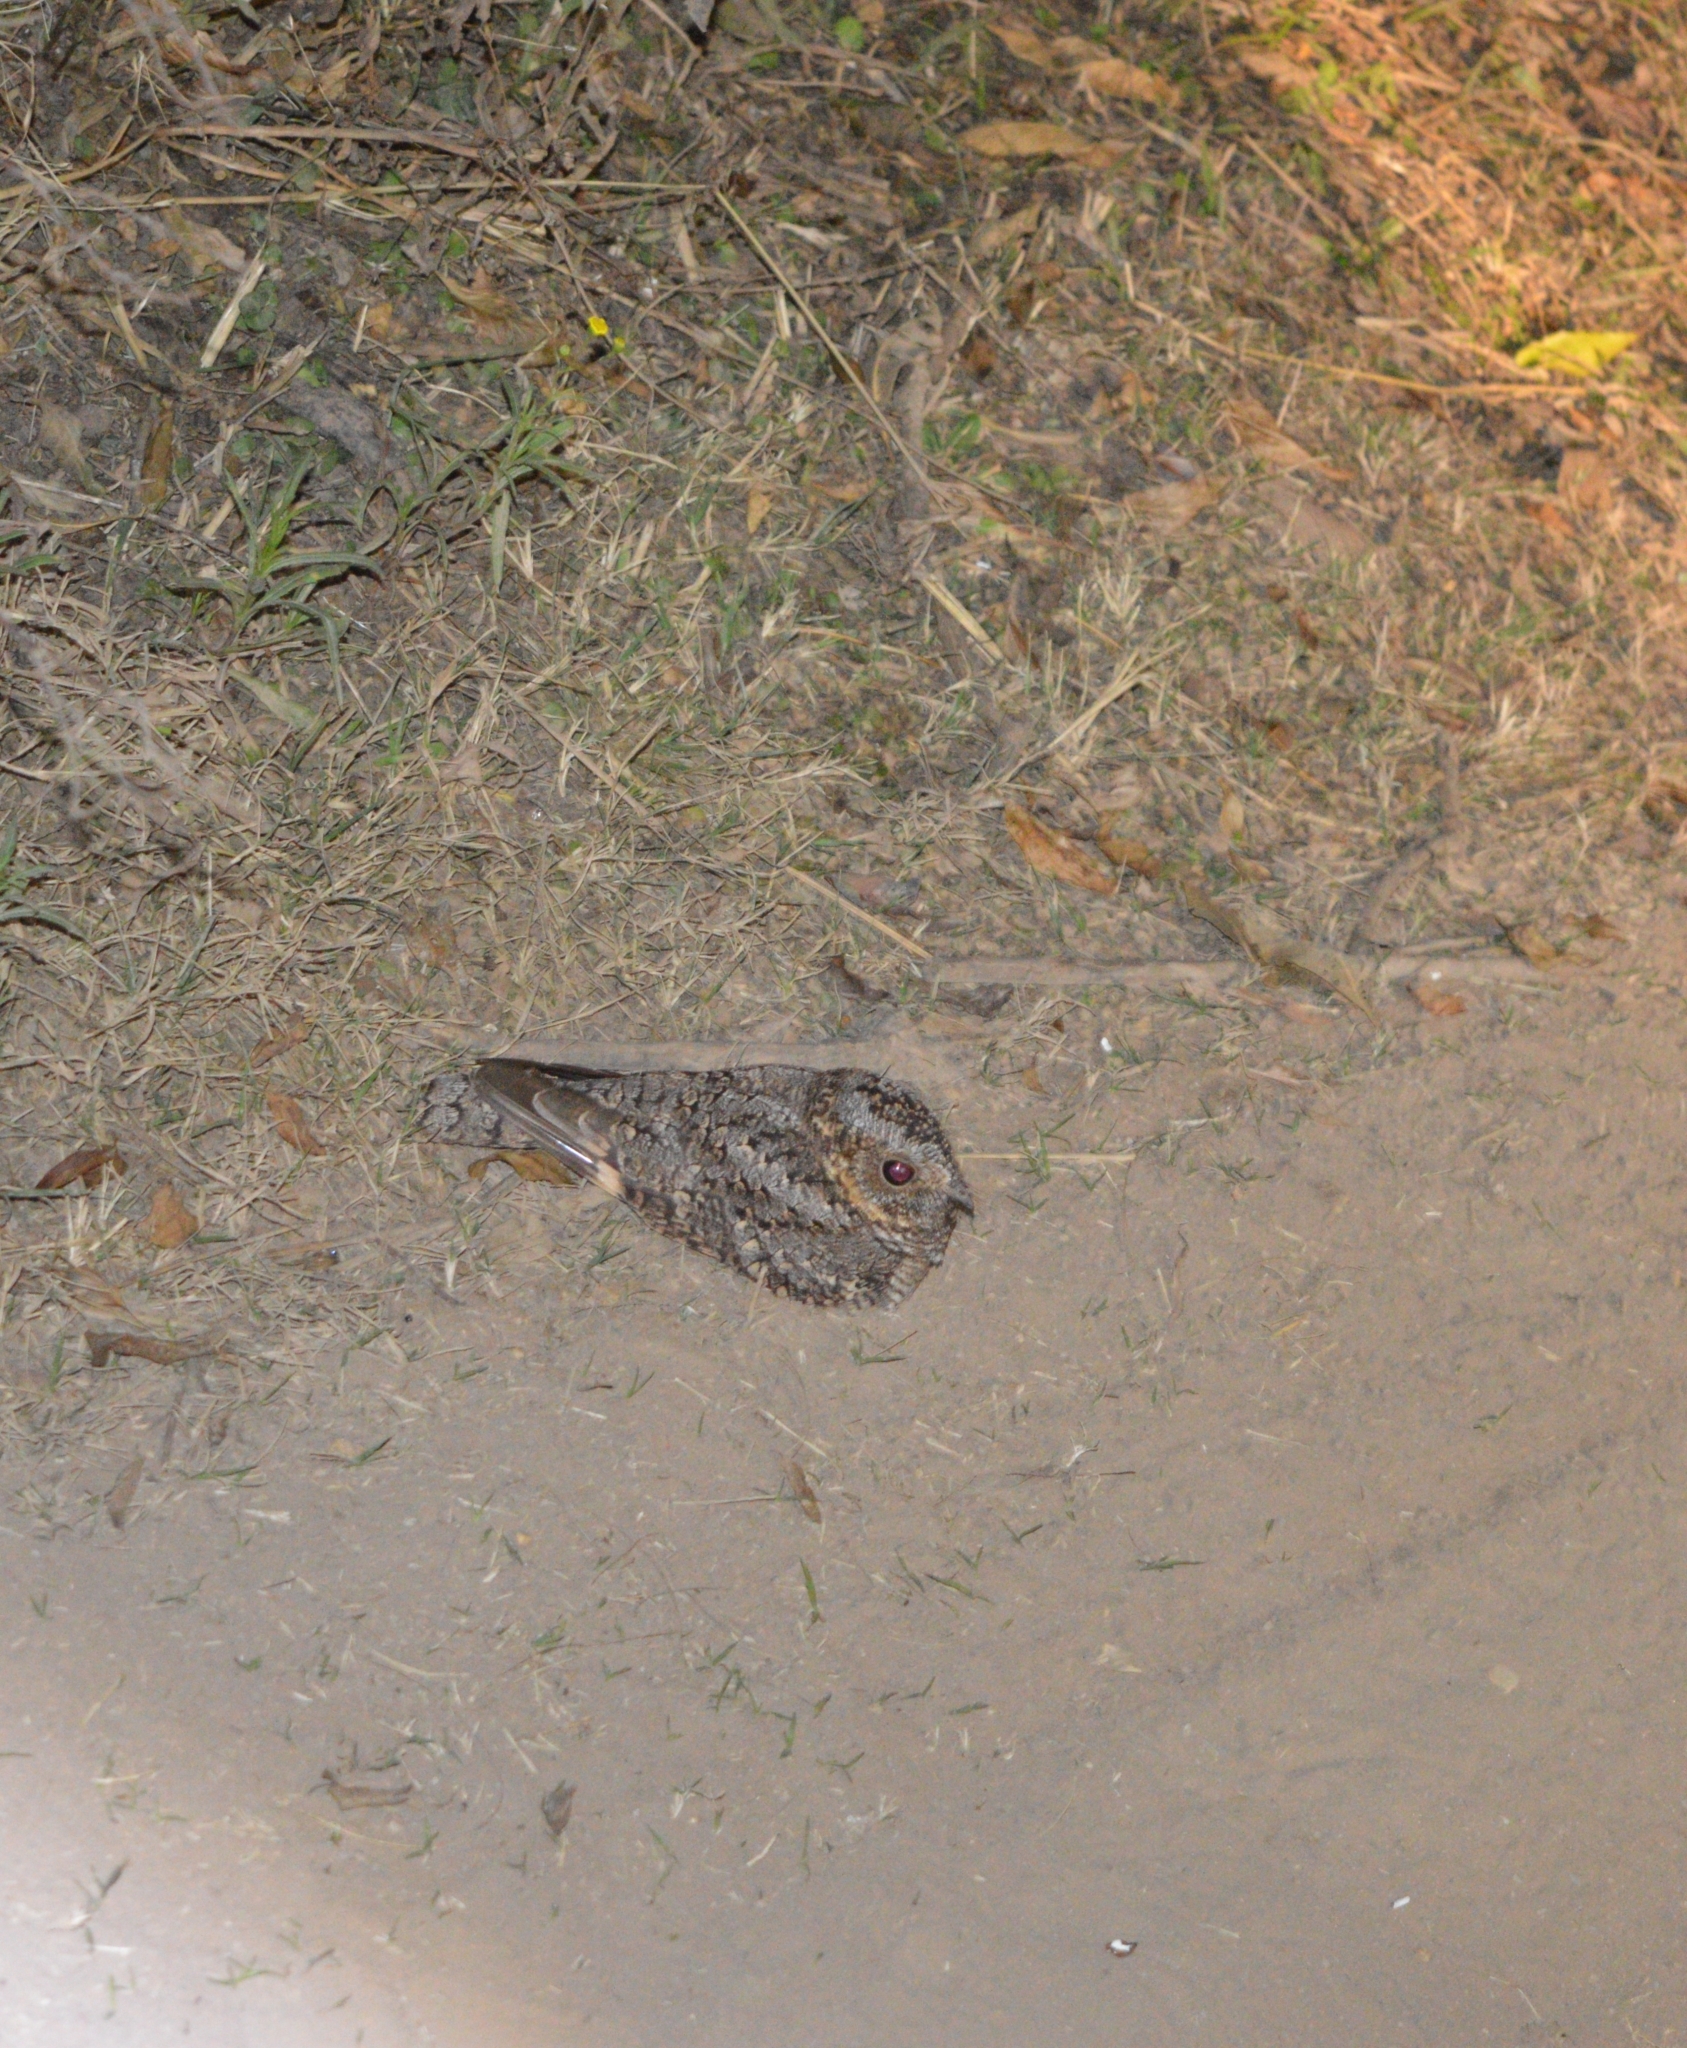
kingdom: Animalia
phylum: Chordata
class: Aves
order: Caprimulgiformes
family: Caprimulgidae
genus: Systellura
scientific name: Systellura longirostris
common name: Band-winged nightjar
